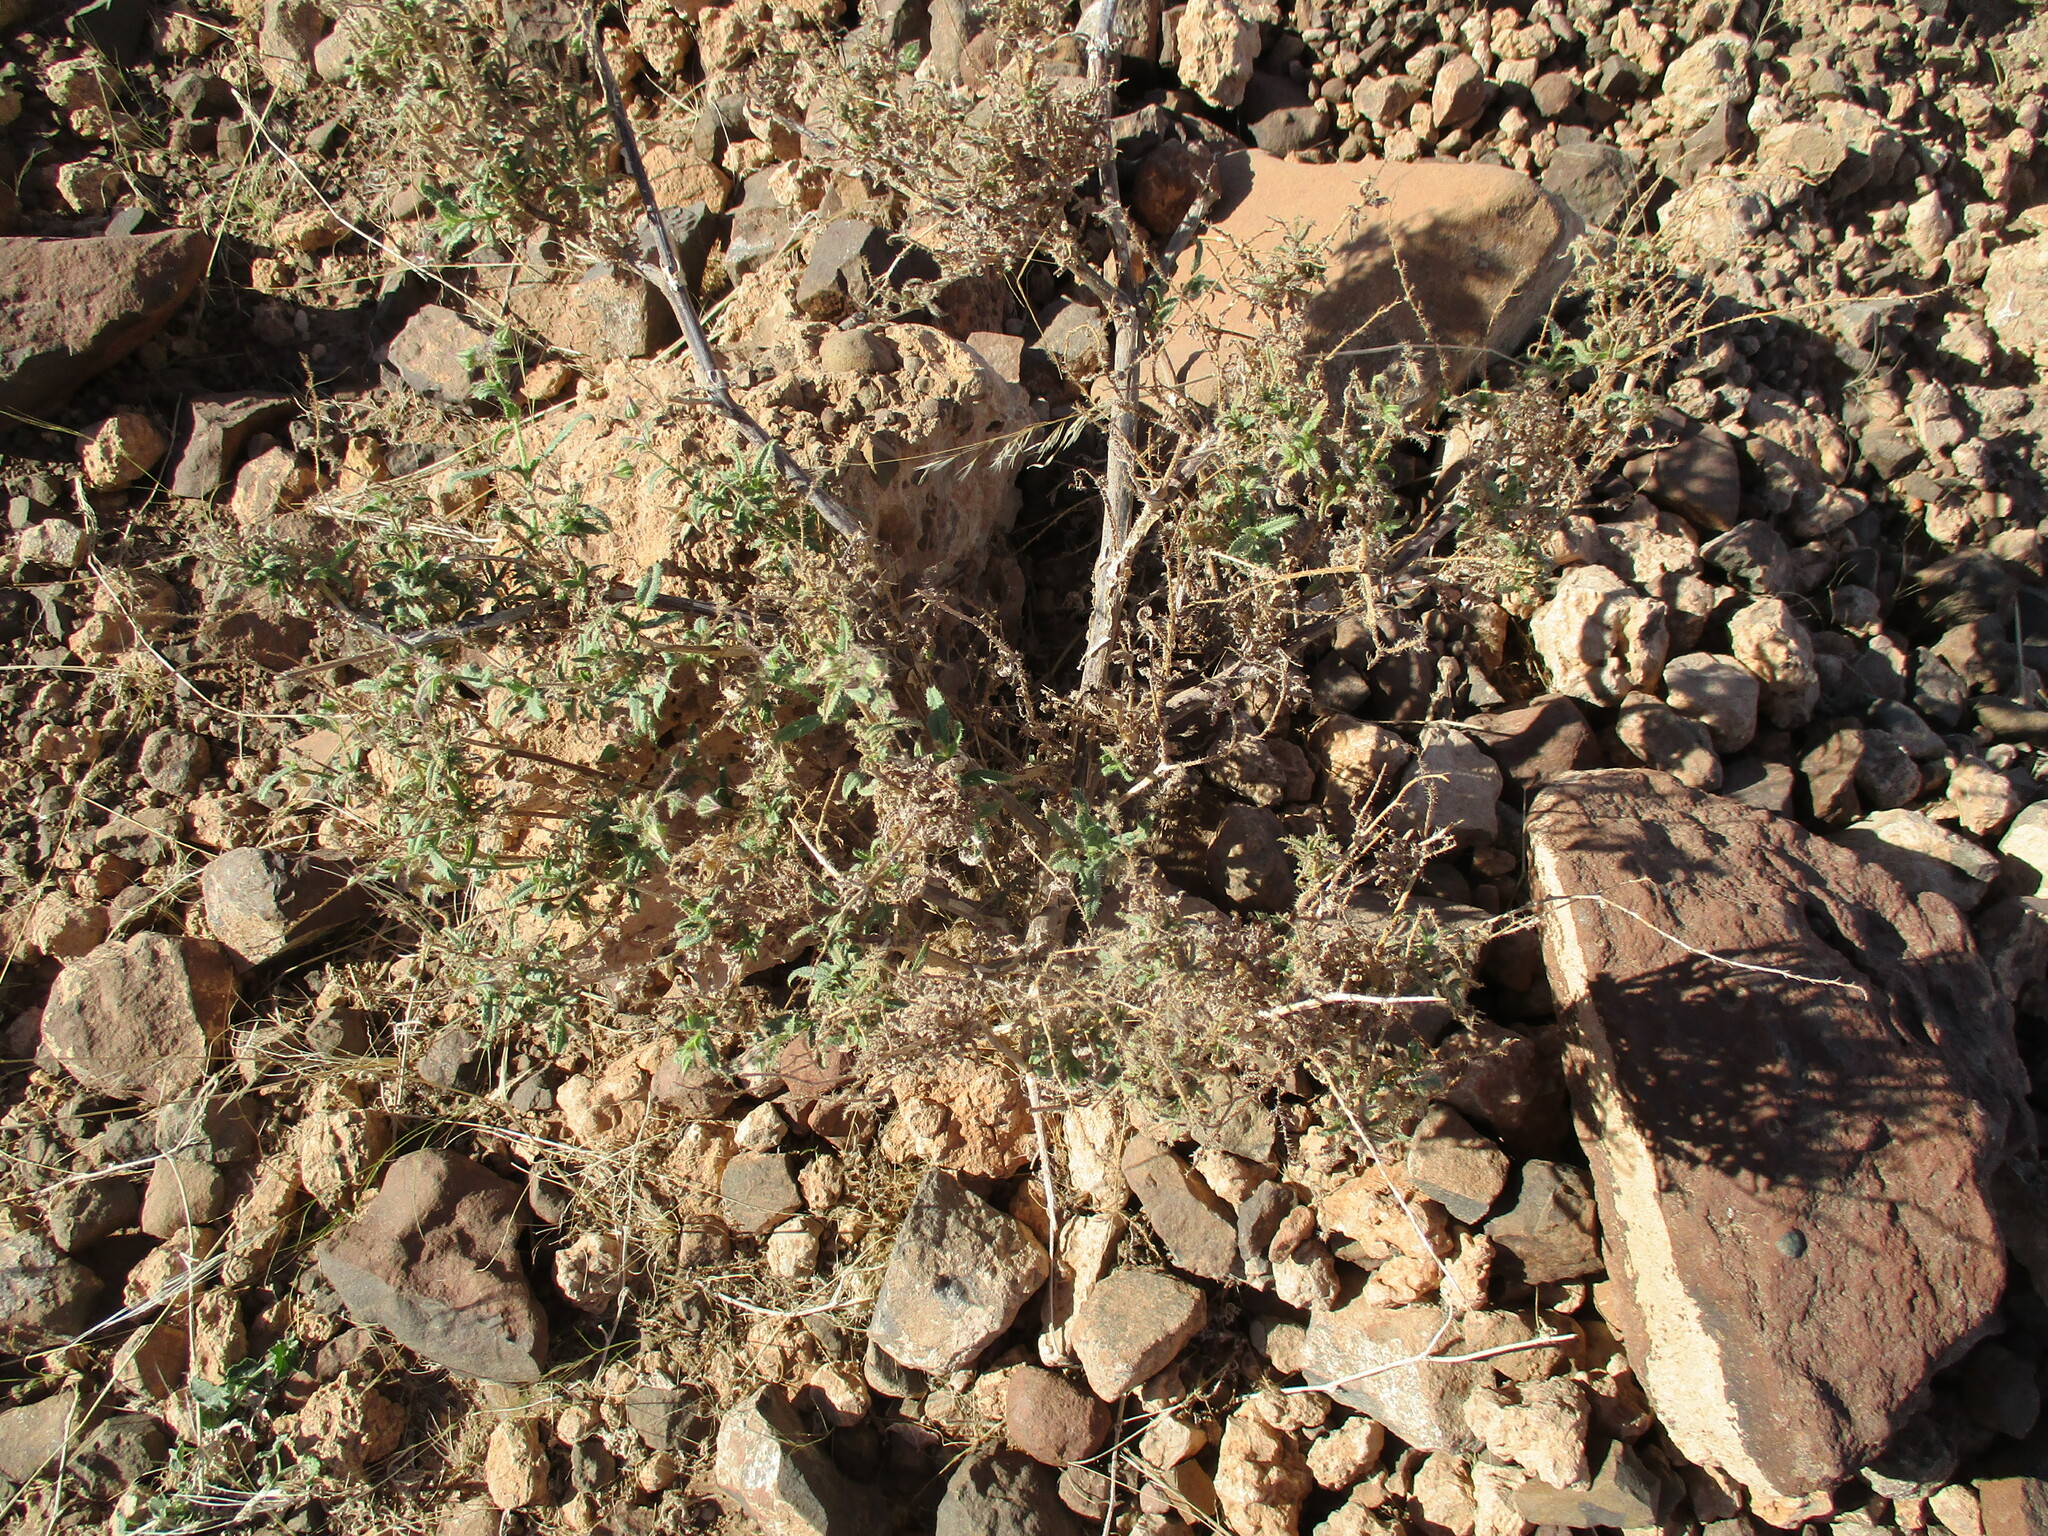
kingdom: Plantae
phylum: Tracheophyta
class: Magnoliopsida
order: Boraginales
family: Boraginaceae
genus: Trichodesma
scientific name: Trichodesma africanum
